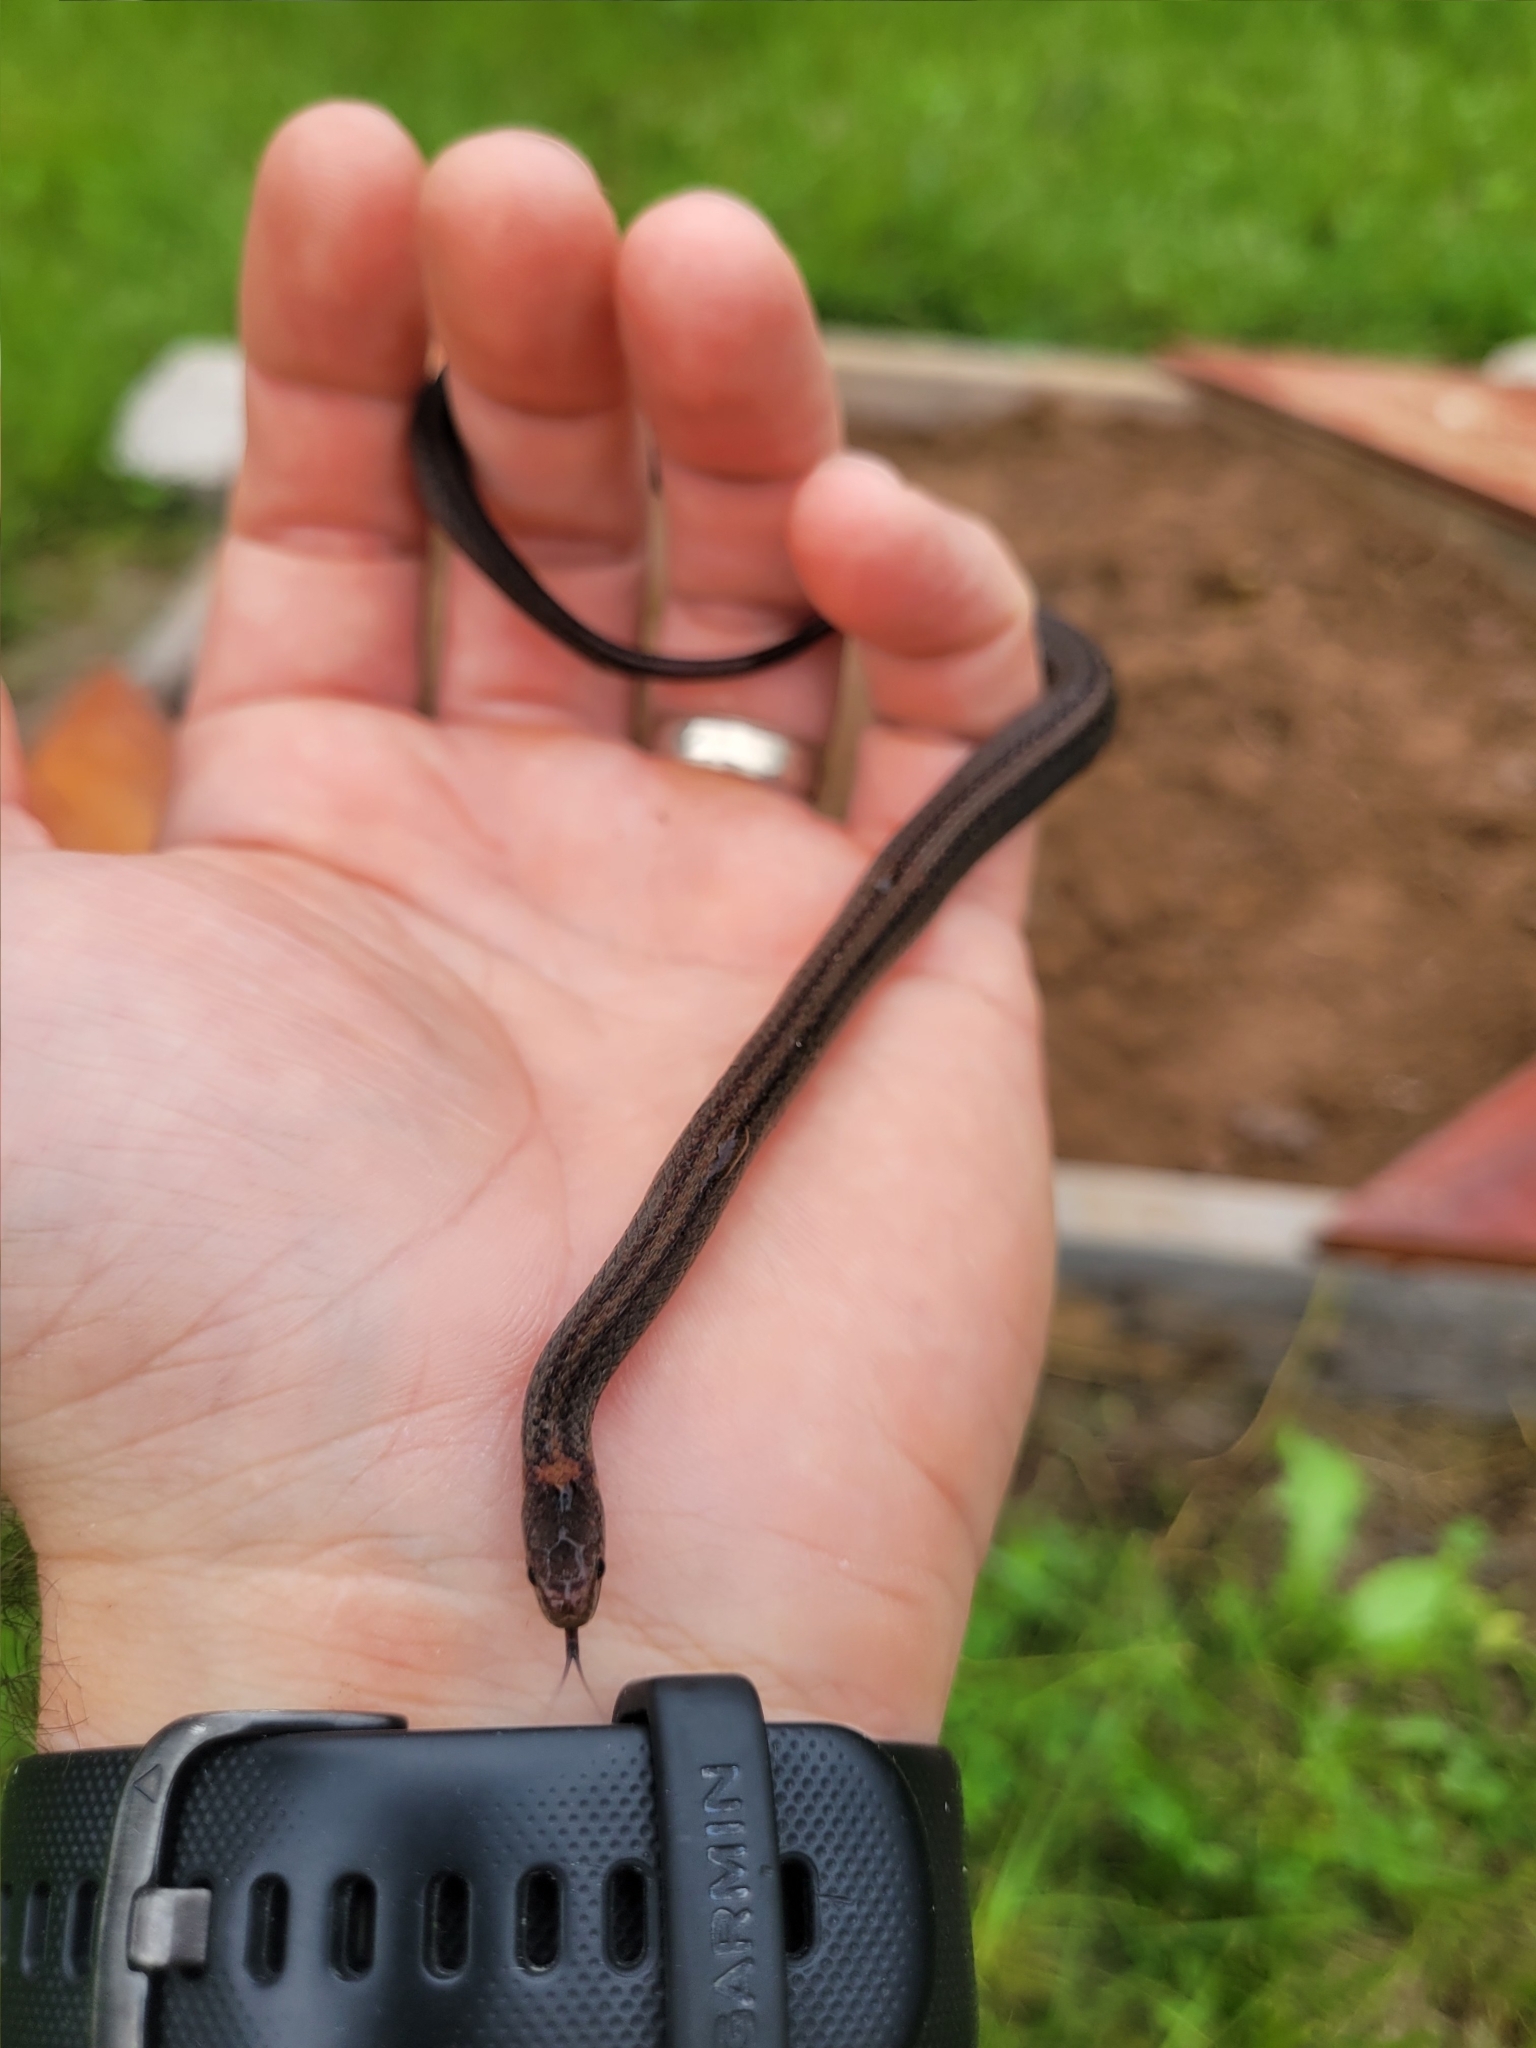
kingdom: Animalia
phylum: Chordata
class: Squamata
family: Colubridae
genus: Storeria
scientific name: Storeria occipitomaculata
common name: Redbelly snake
